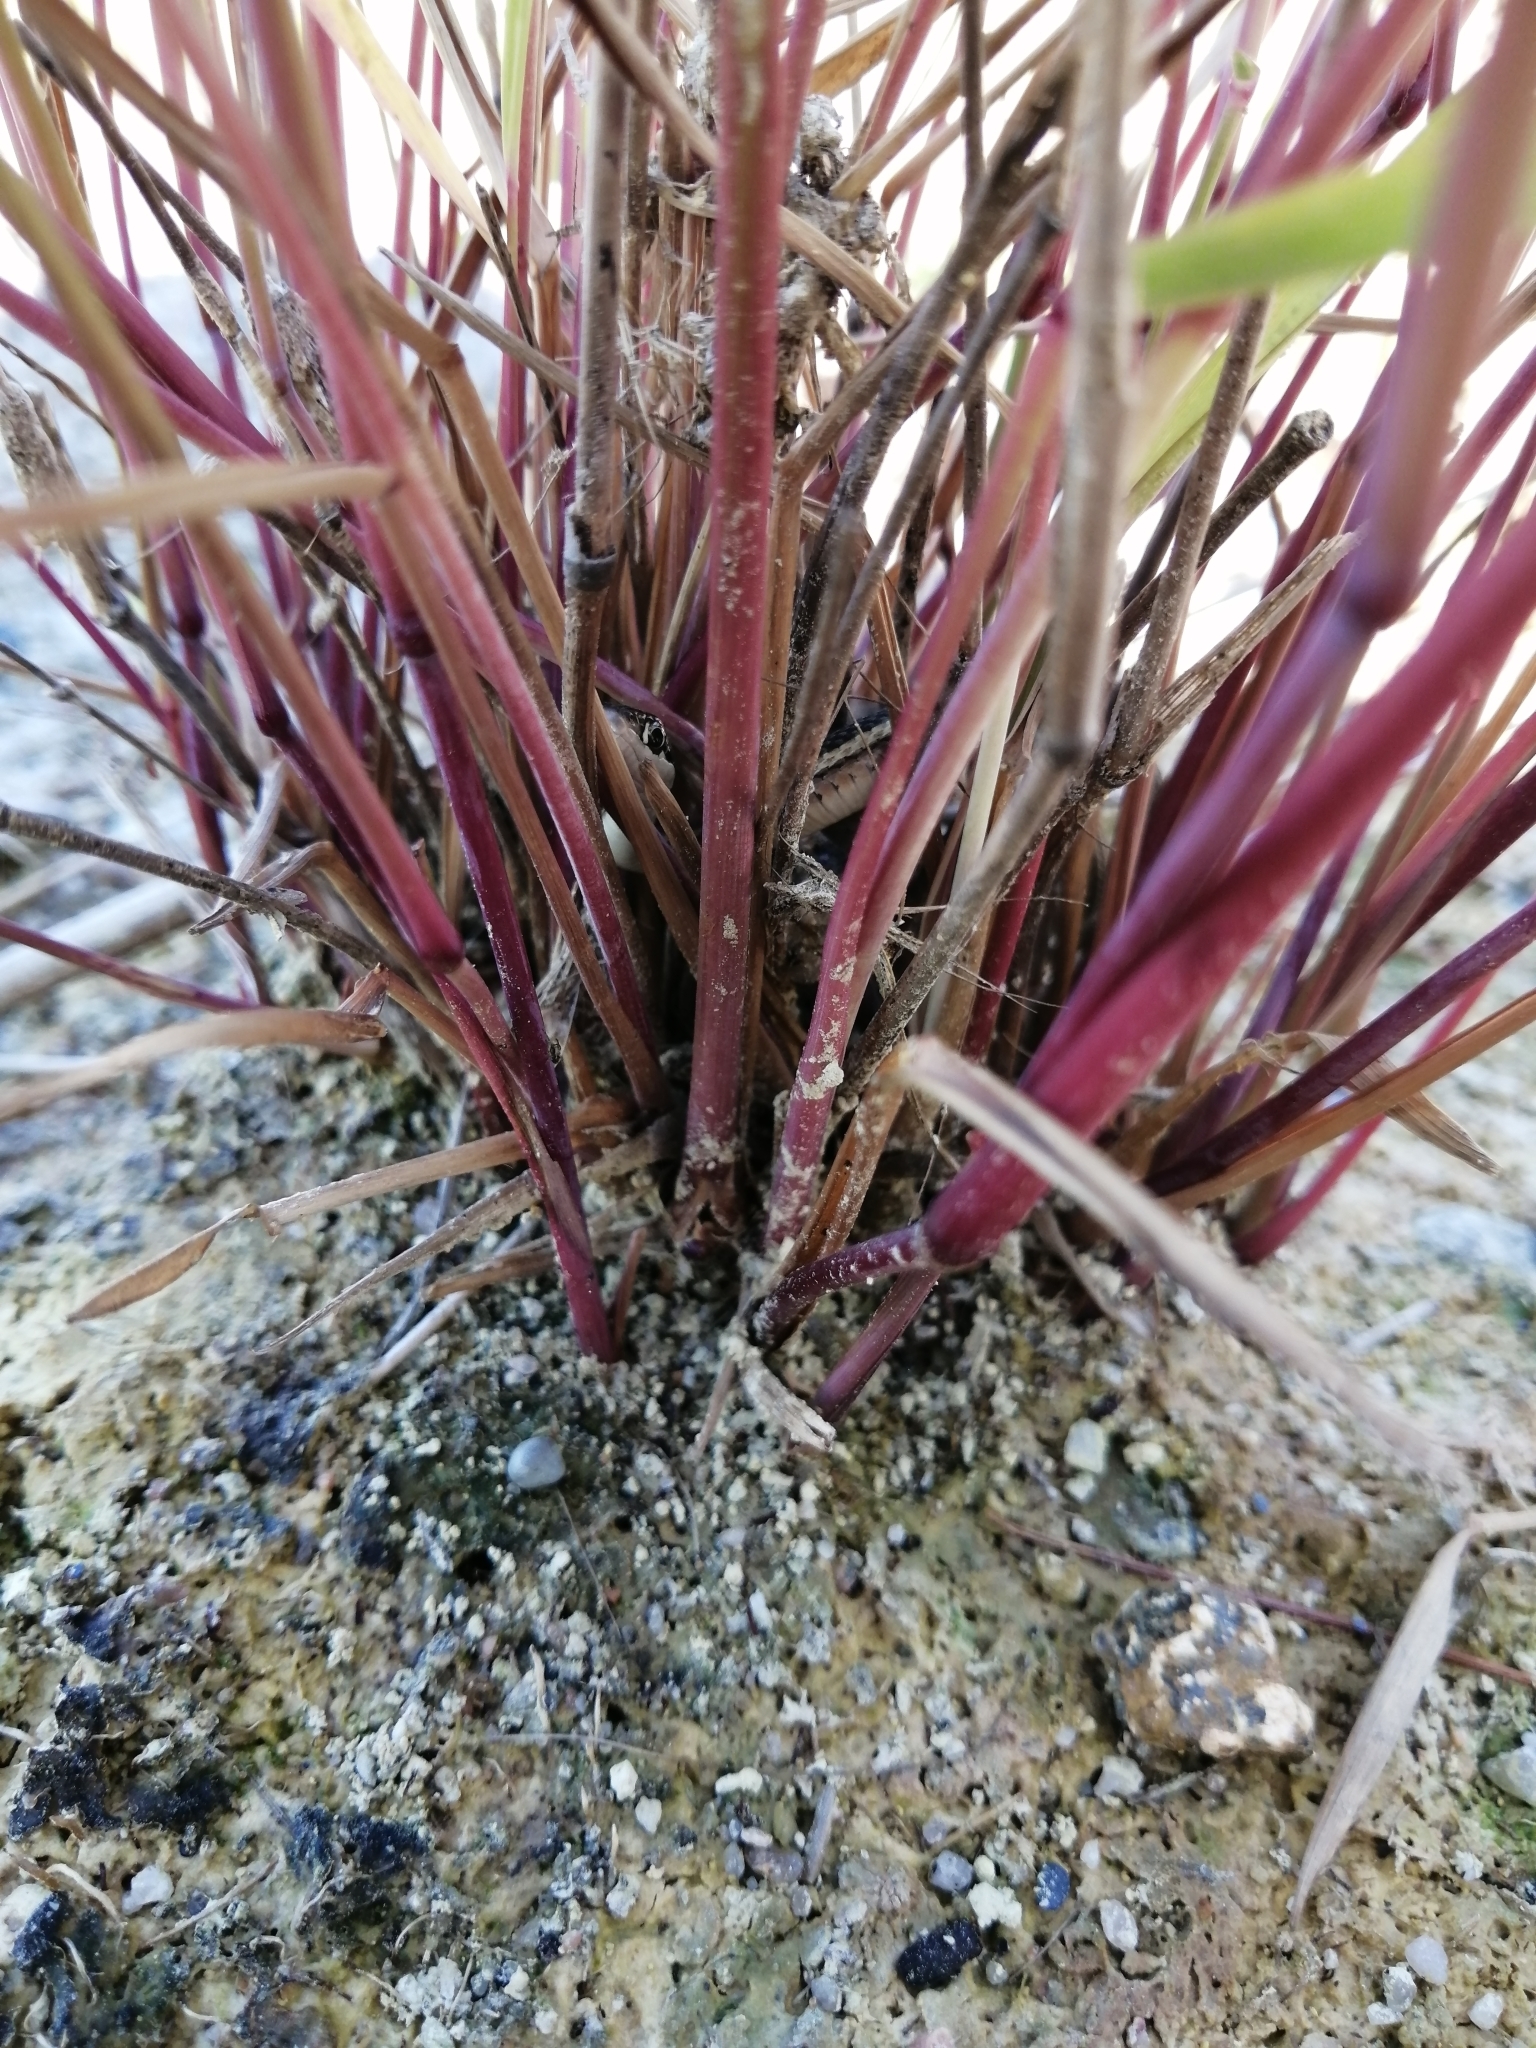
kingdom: Animalia
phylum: Chordata
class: Squamata
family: Colubridae
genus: Thamnophis
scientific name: Thamnophis saurita
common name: Eastern ribbonsnake
